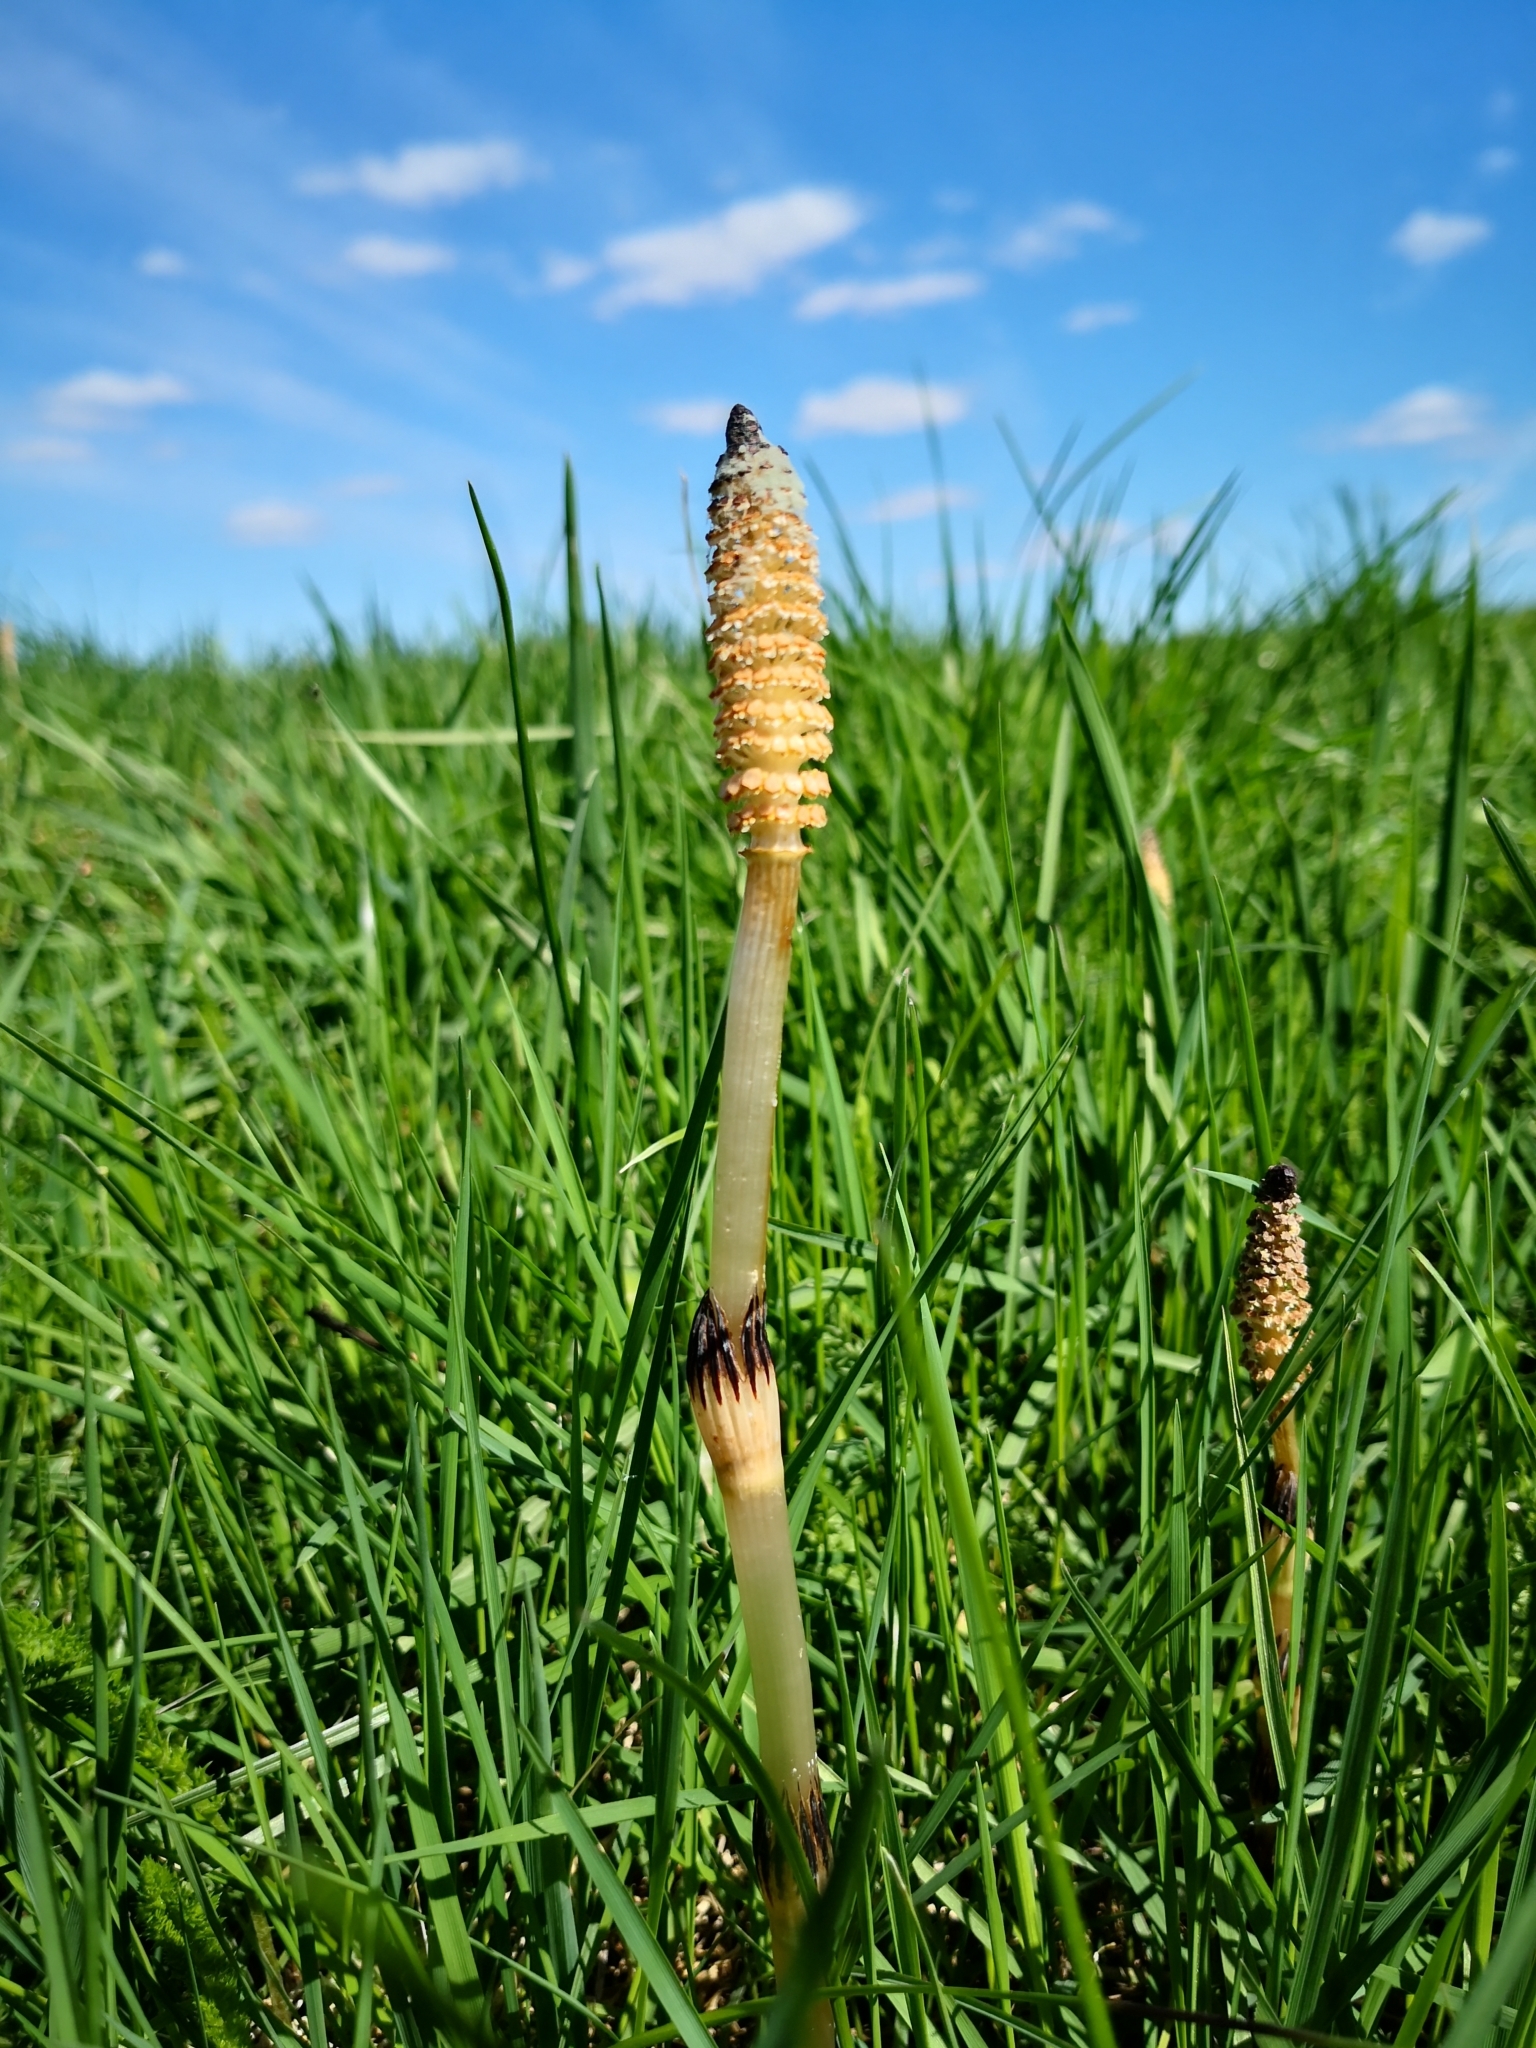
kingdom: Plantae
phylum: Tracheophyta
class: Polypodiopsida
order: Equisetales
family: Equisetaceae
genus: Equisetum
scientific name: Equisetum arvense
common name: Field horsetail
